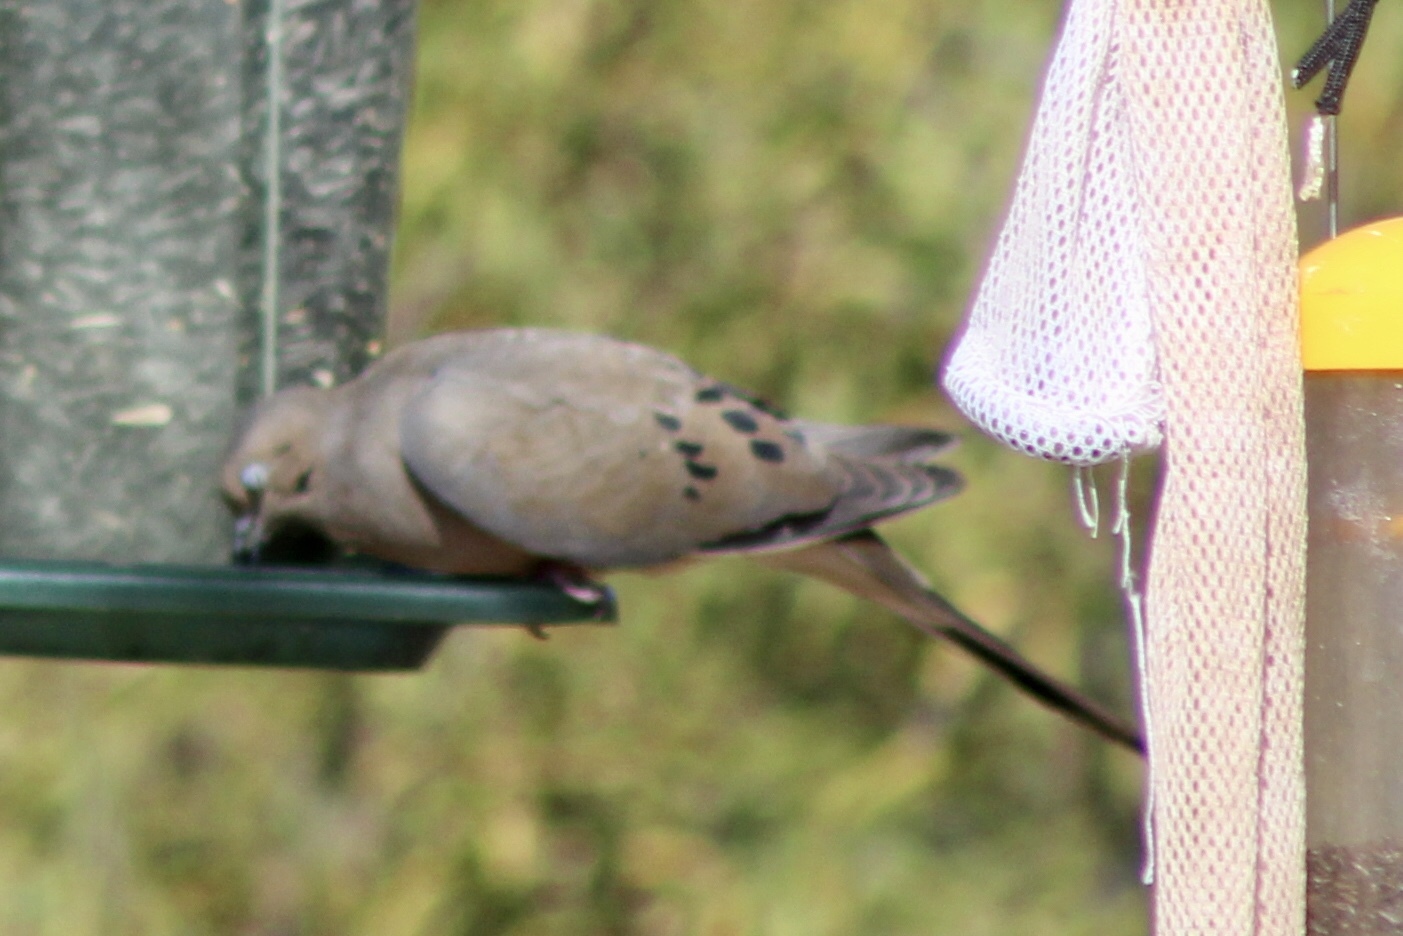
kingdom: Animalia
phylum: Chordata
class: Aves
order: Columbiformes
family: Columbidae
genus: Zenaida
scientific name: Zenaida macroura
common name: Mourning dove
